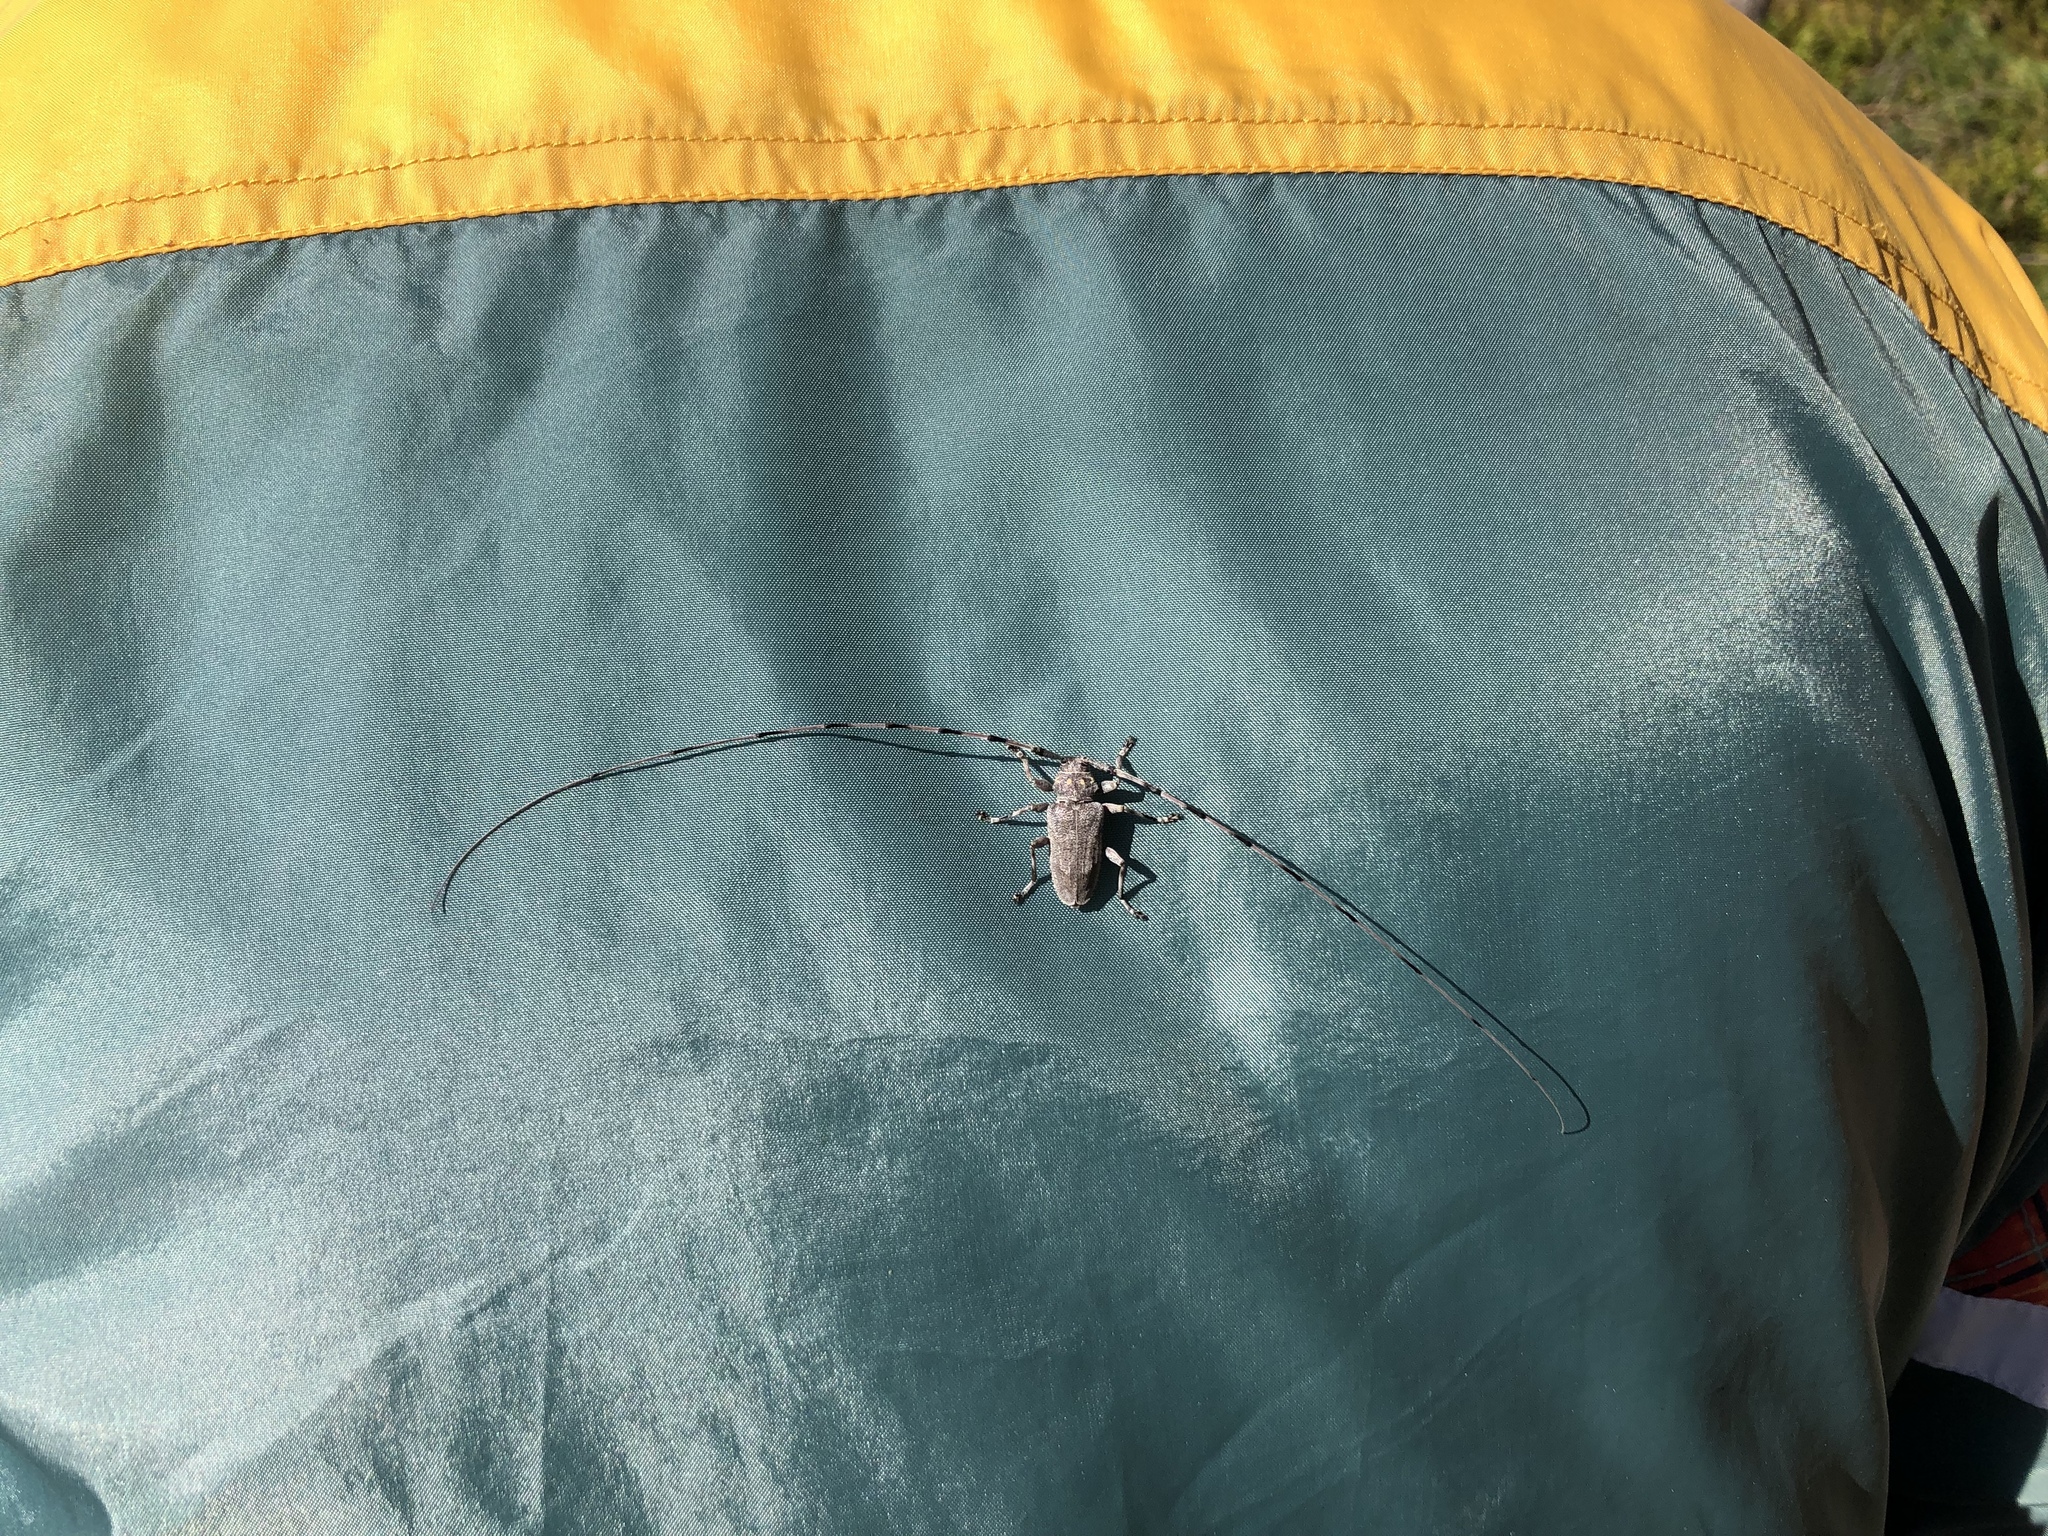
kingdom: Animalia
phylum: Arthropoda
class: Insecta
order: Coleoptera
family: Cerambycidae
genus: Acanthocinus
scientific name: Acanthocinus aedilis
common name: Timberman beetle
